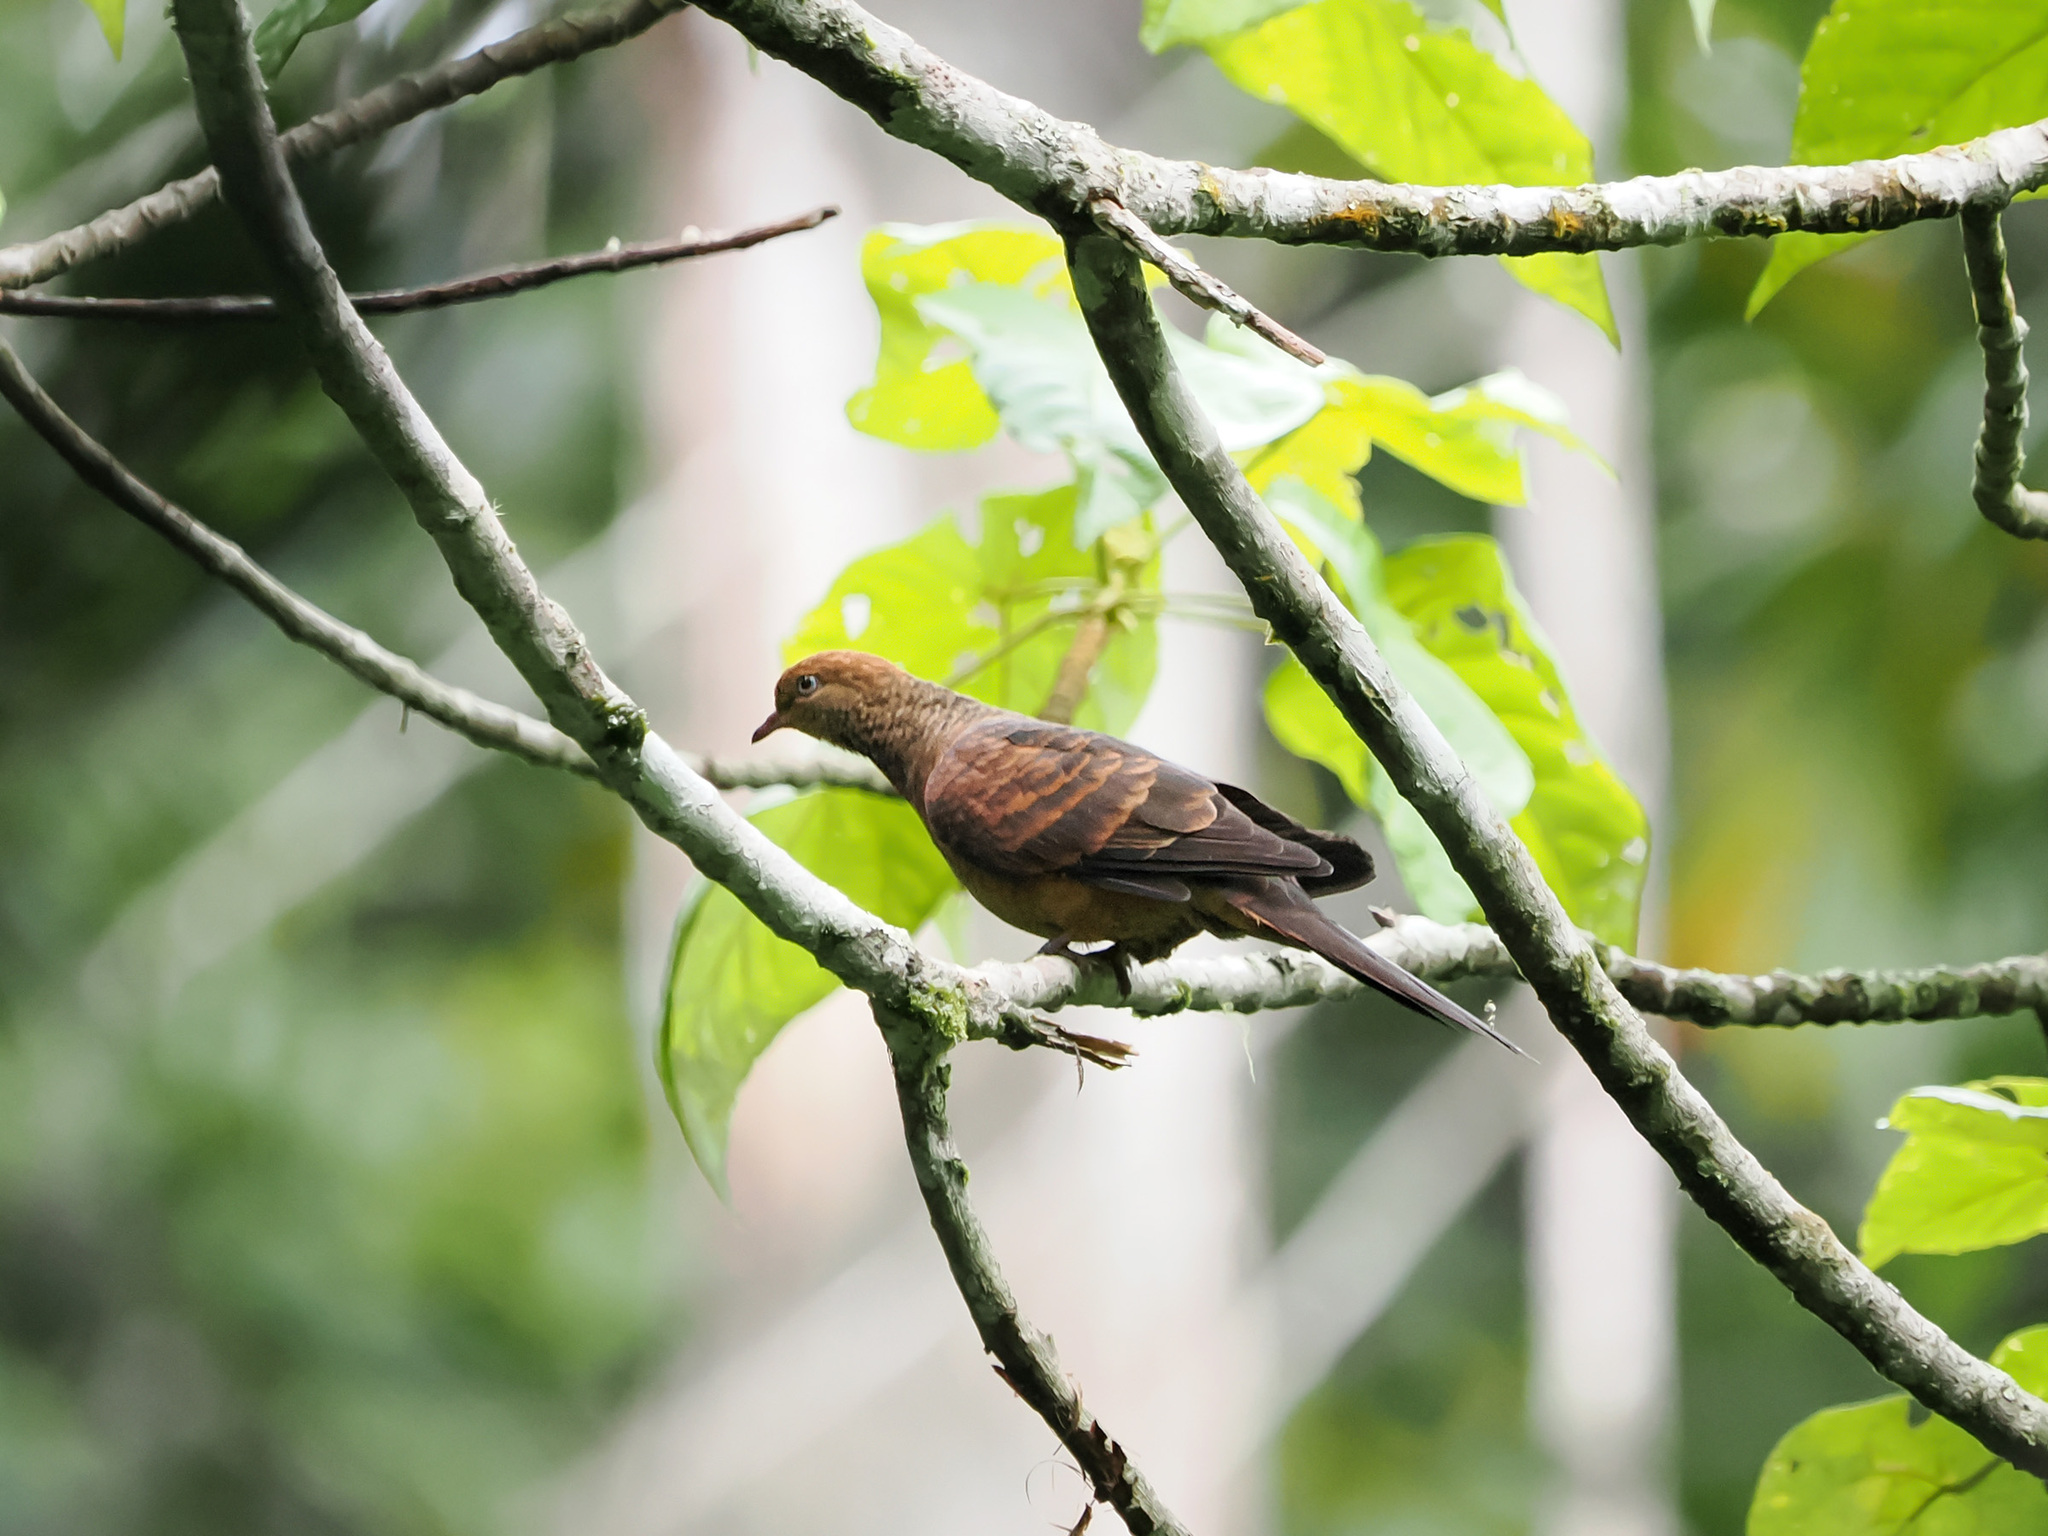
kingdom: Animalia
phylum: Chordata
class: Aves
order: Columbiformes
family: Columbidae
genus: Macropygia
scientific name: Macropygia ruficeps
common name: Little cuckoo-dove
